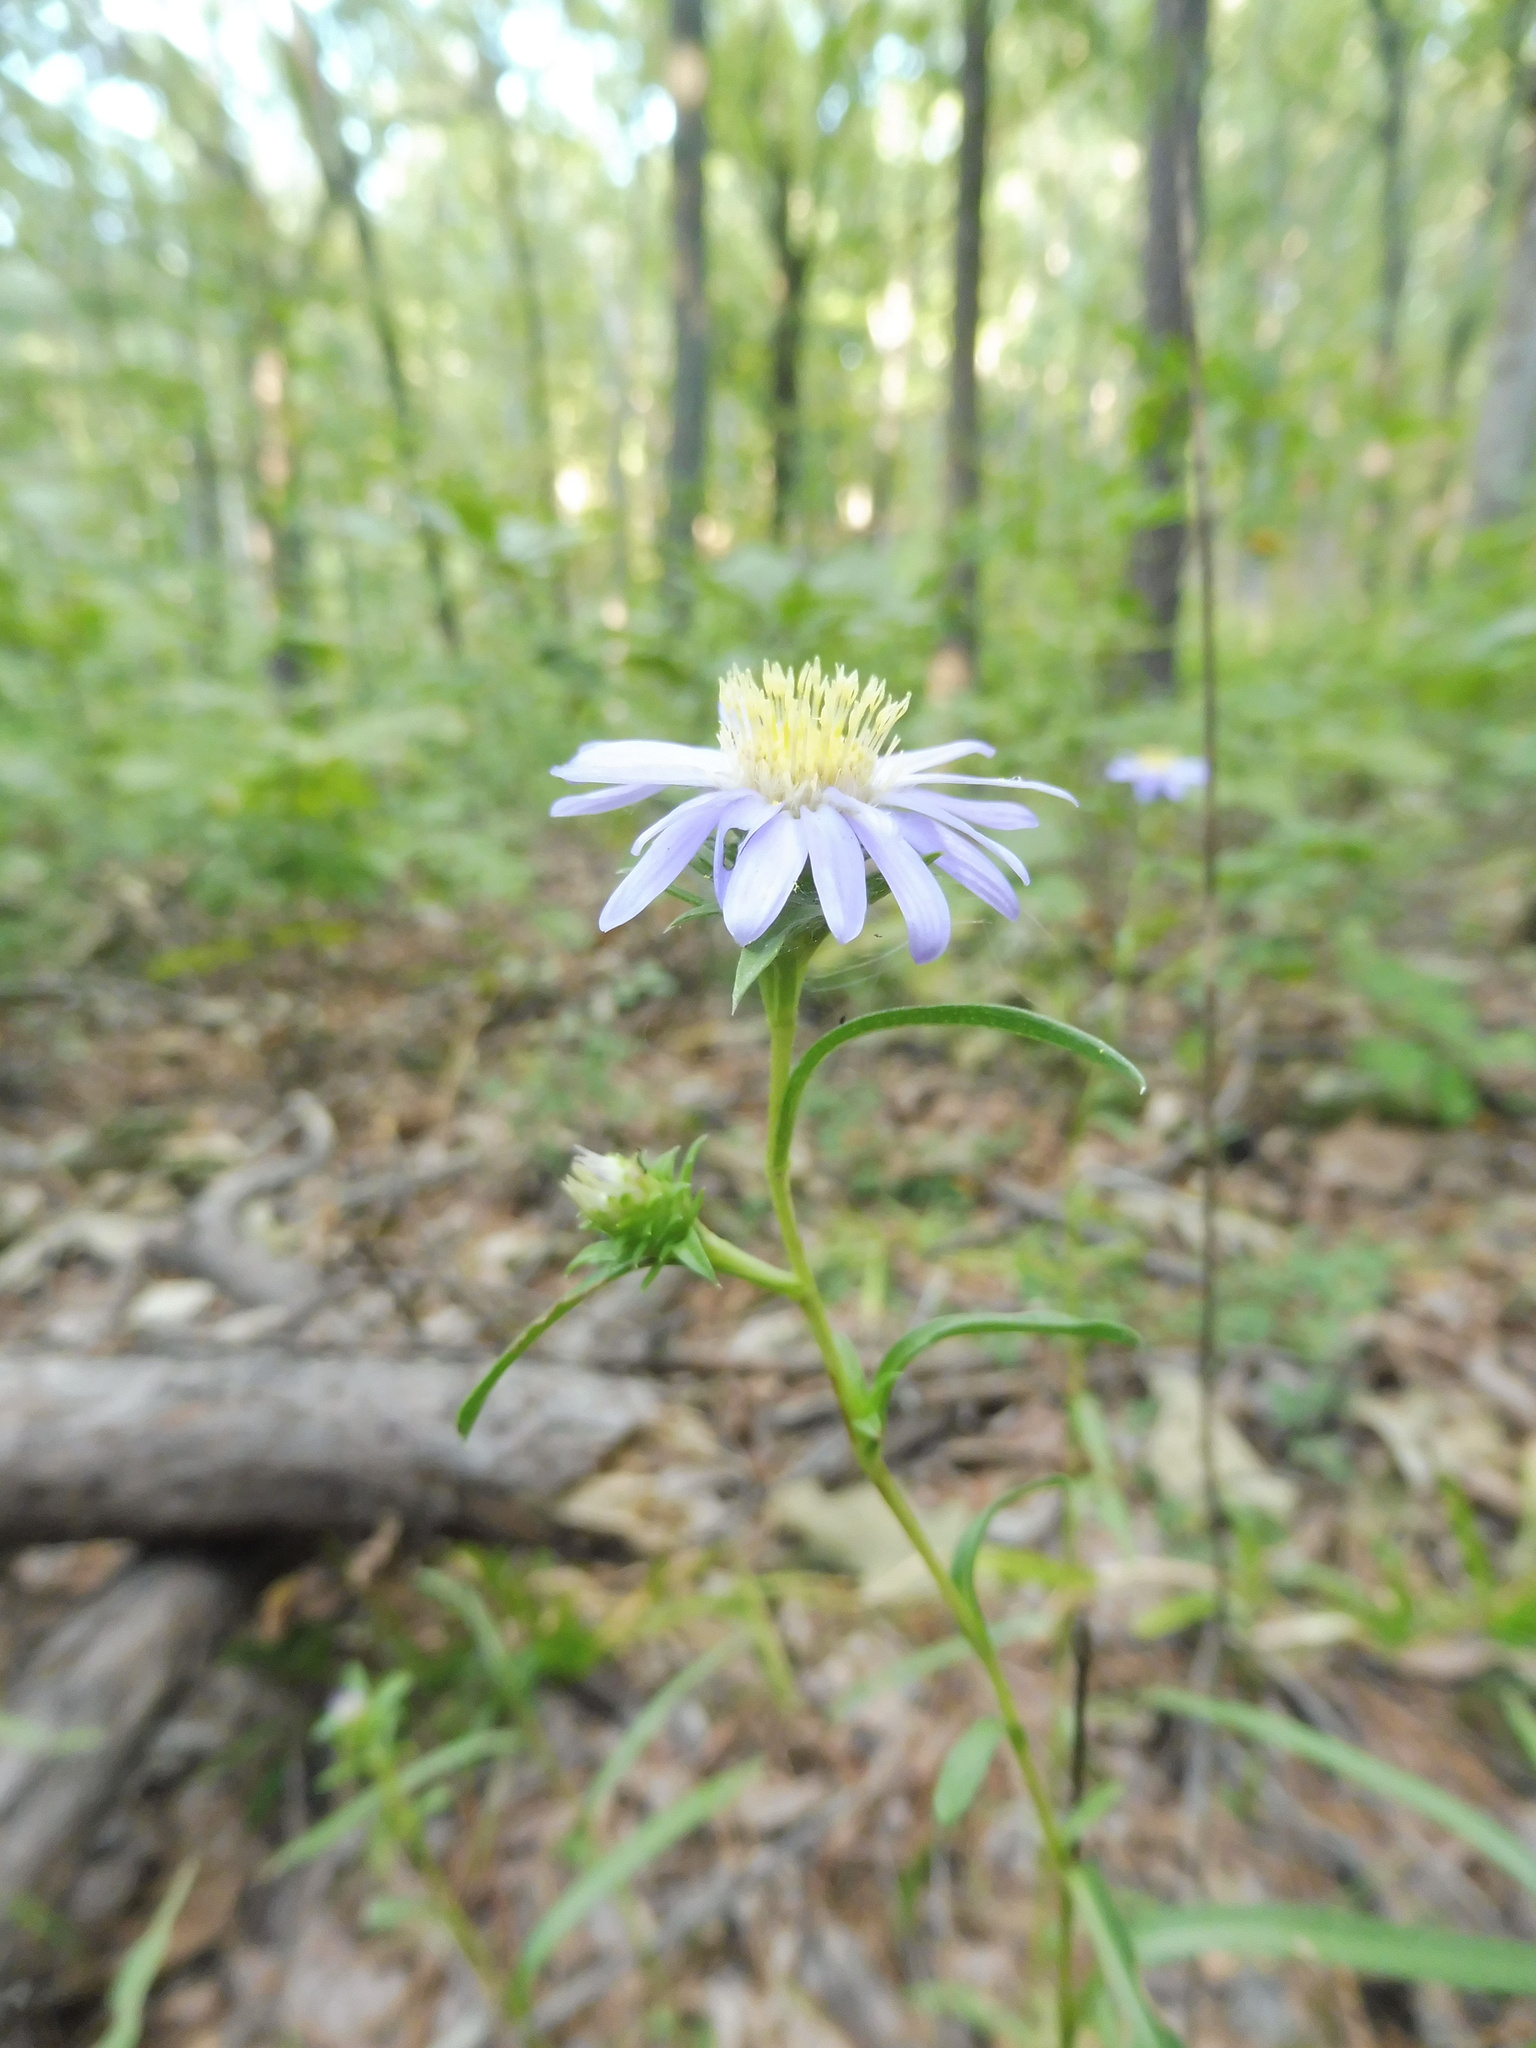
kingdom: Plantae
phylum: Tracheophyta
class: Magnoliopsida
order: Asterales
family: Asteraceae
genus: Eurybia
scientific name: Eurybia hemispherica
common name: Showy aster
